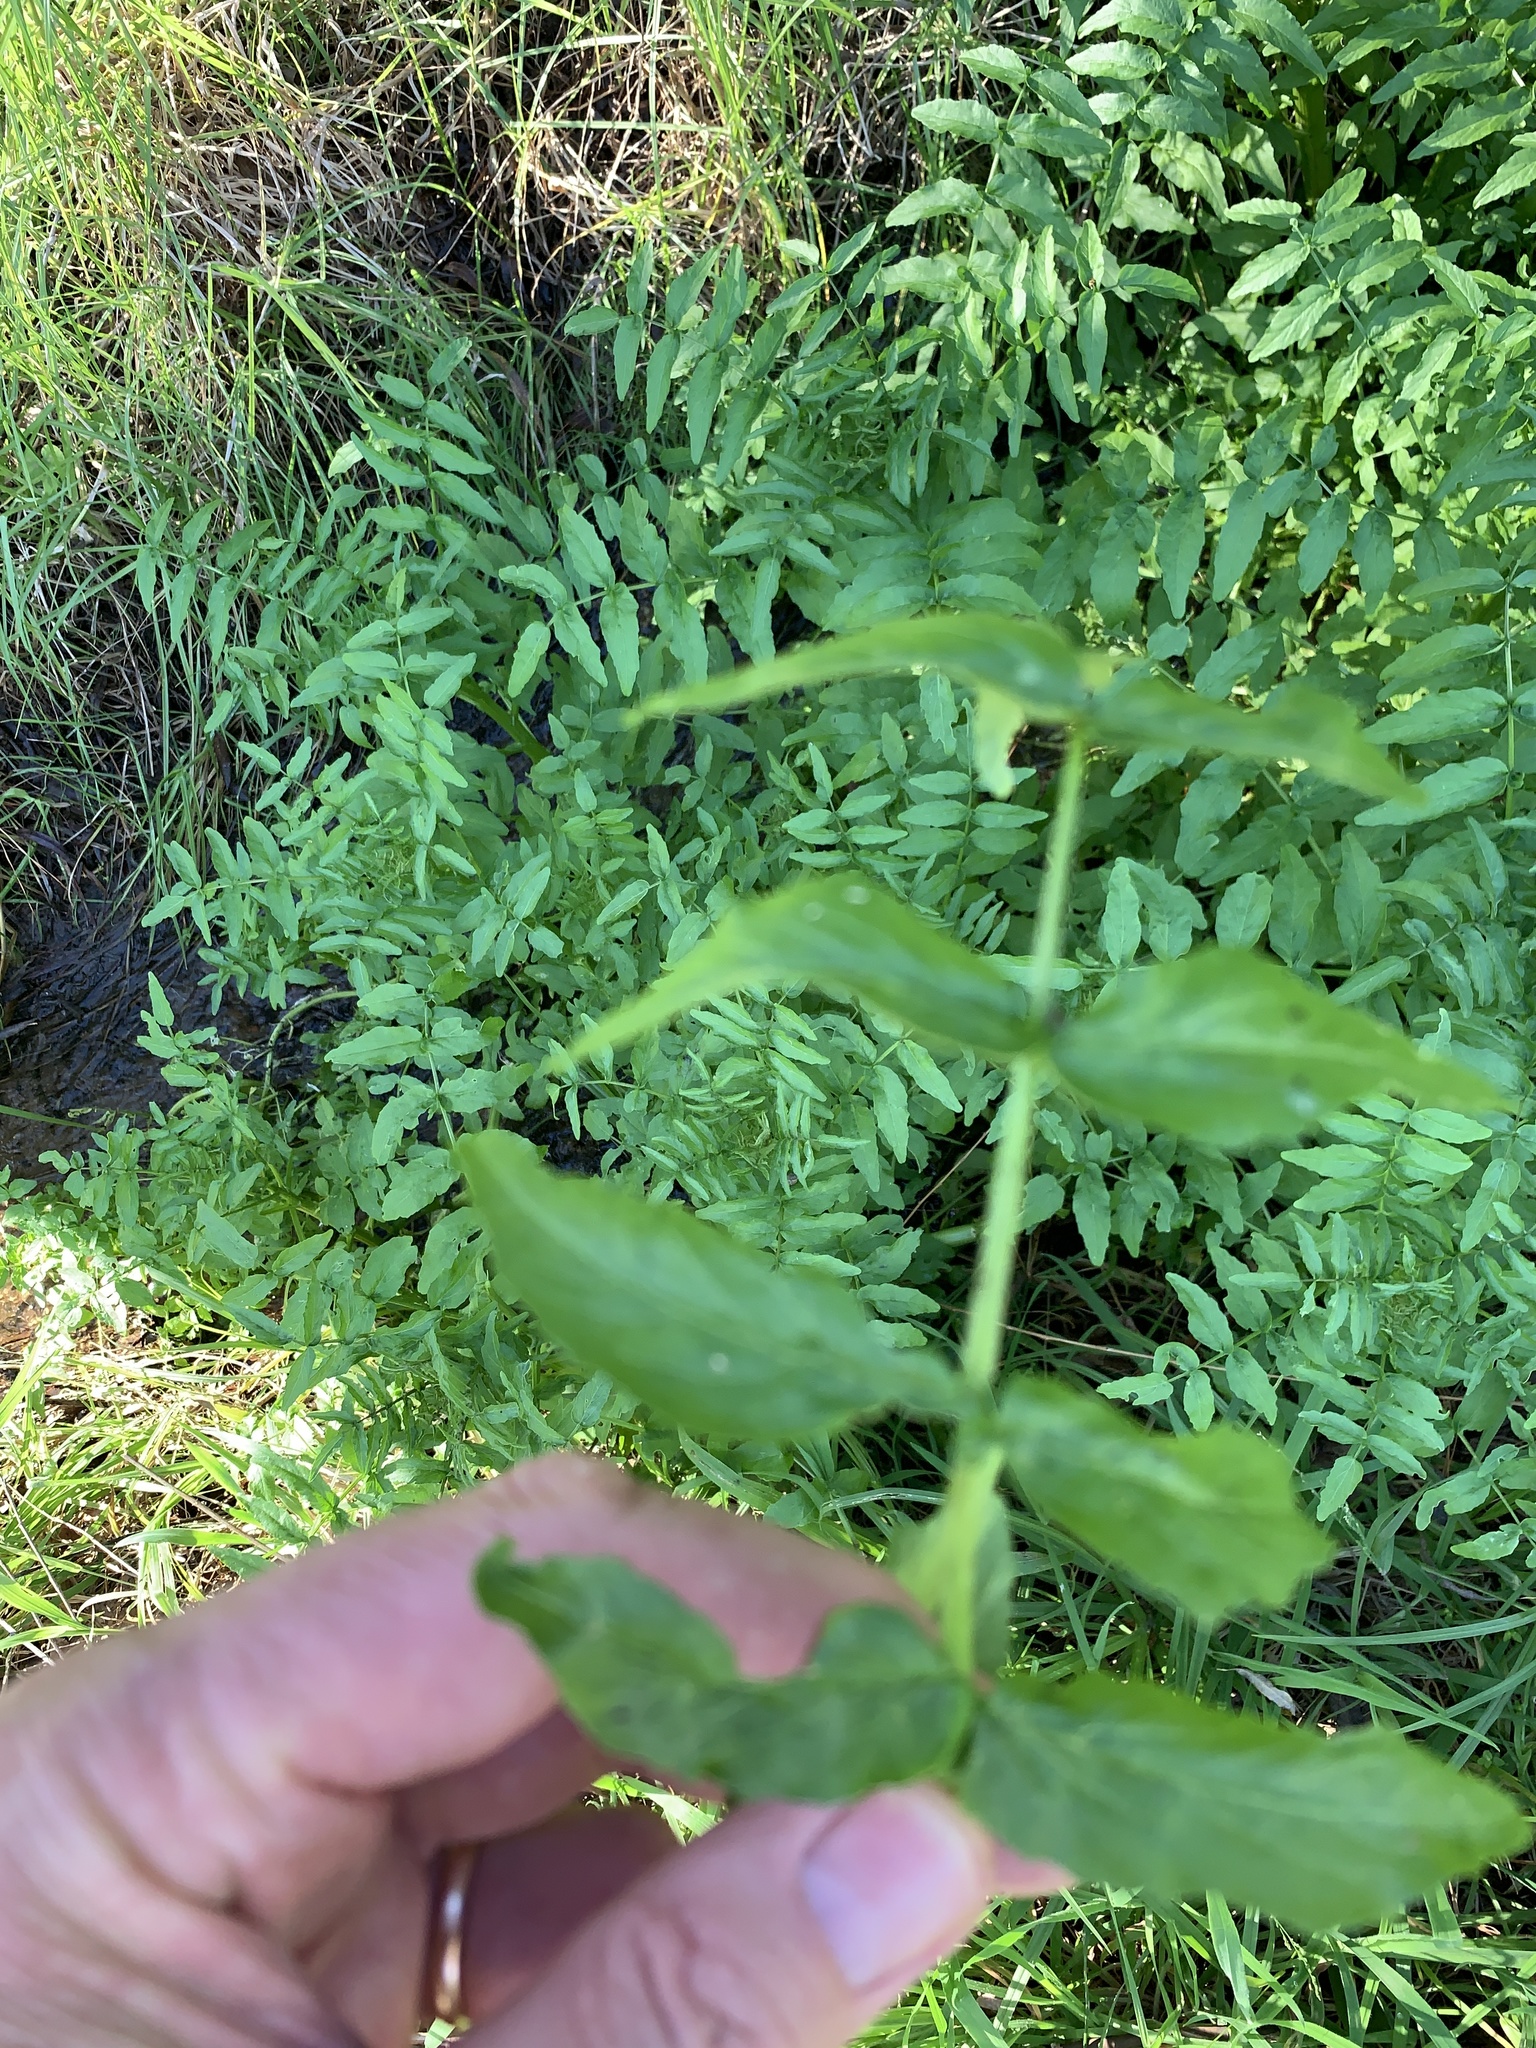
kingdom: Plantae
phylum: Tracheophyta
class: Magnoliopsida
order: Brassicales
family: Brassicaceae
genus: Nasturtium
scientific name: Nasturtium officinale
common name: Watercress
